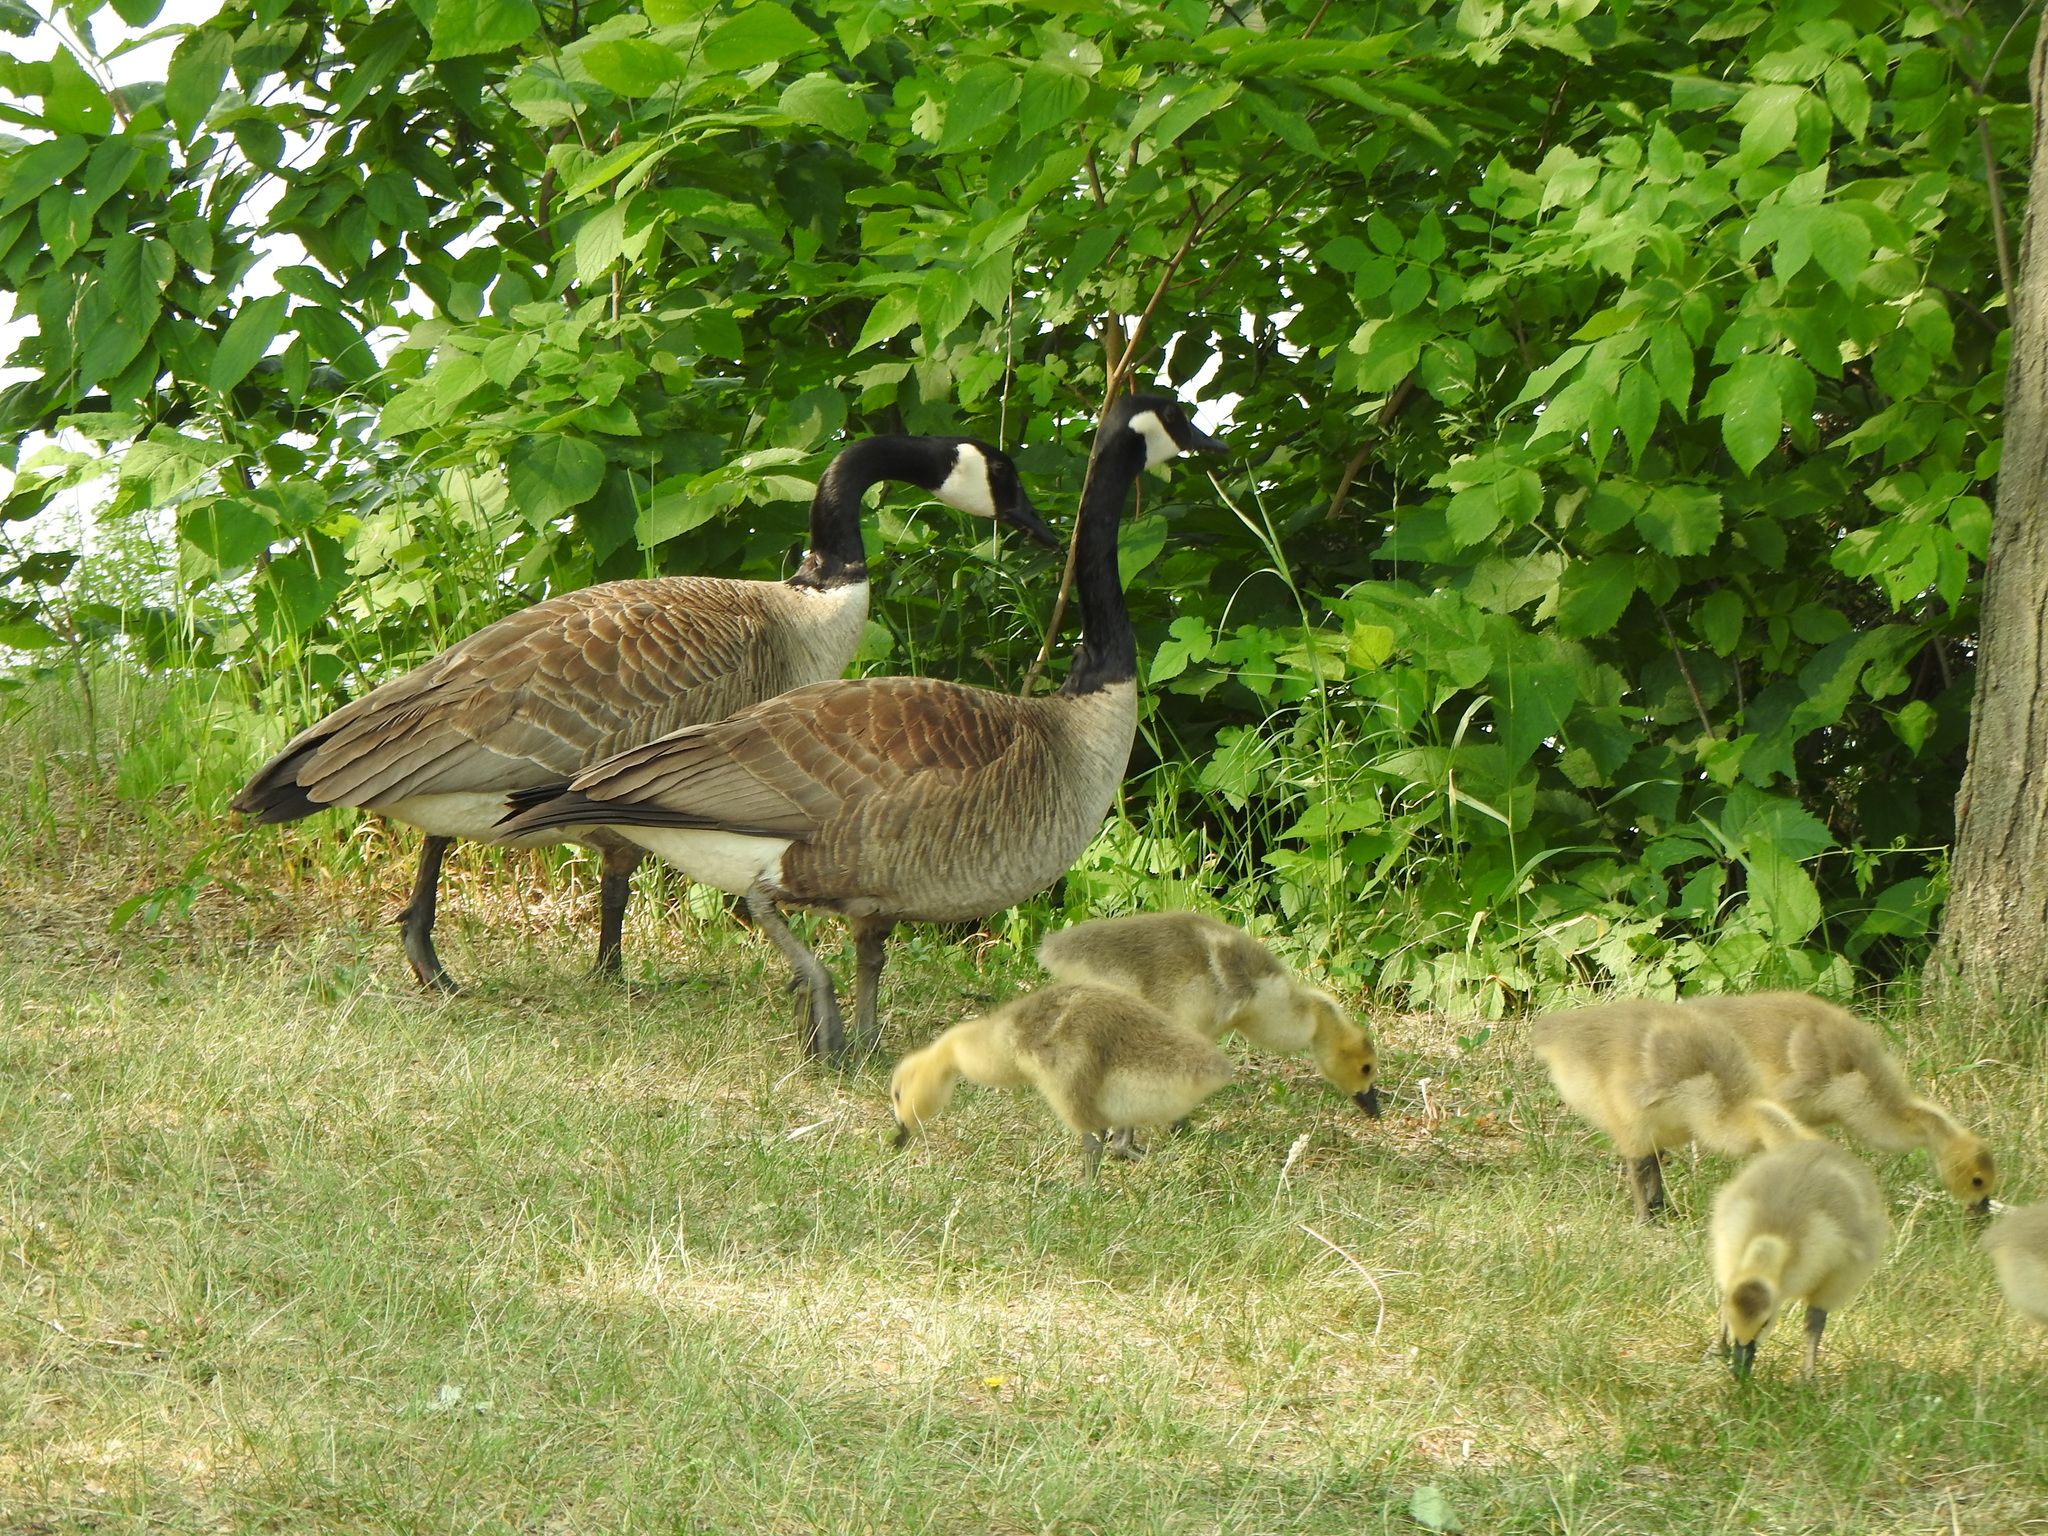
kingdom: Animalia
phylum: Chordata
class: Aves
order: Anseriformes
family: Anatidae
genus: Branta
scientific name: Branta canadensis
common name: Canada goose
